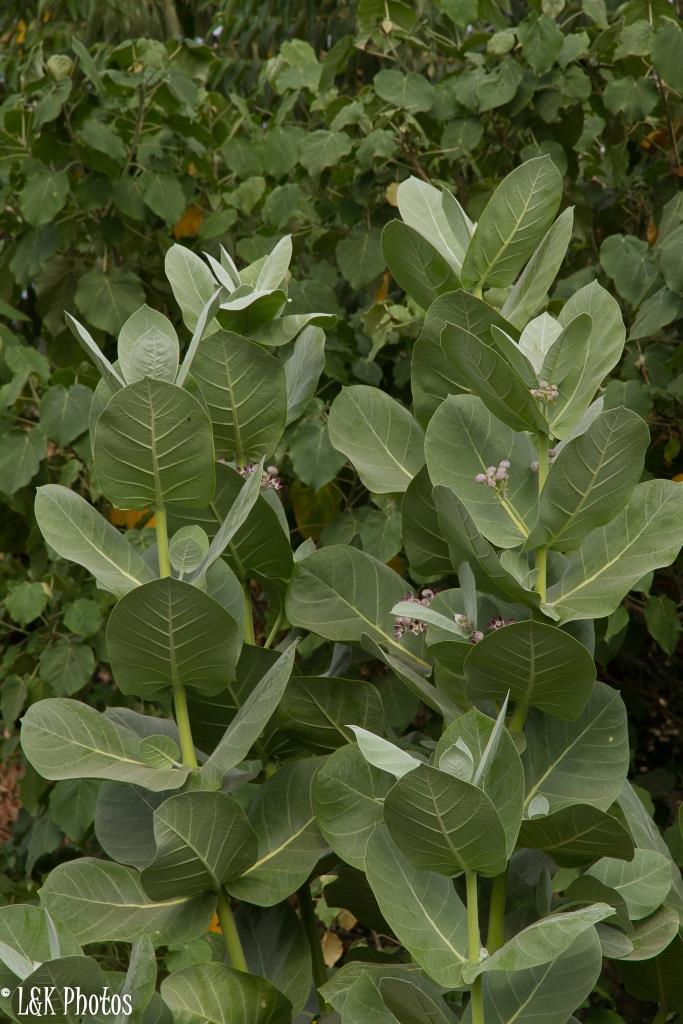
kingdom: Plantae
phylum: Tracheophyta
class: Magnoliopsida
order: Gentianales
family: Apocynaceae
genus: Calotropis
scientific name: Calotropis procera
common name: Roostertree
